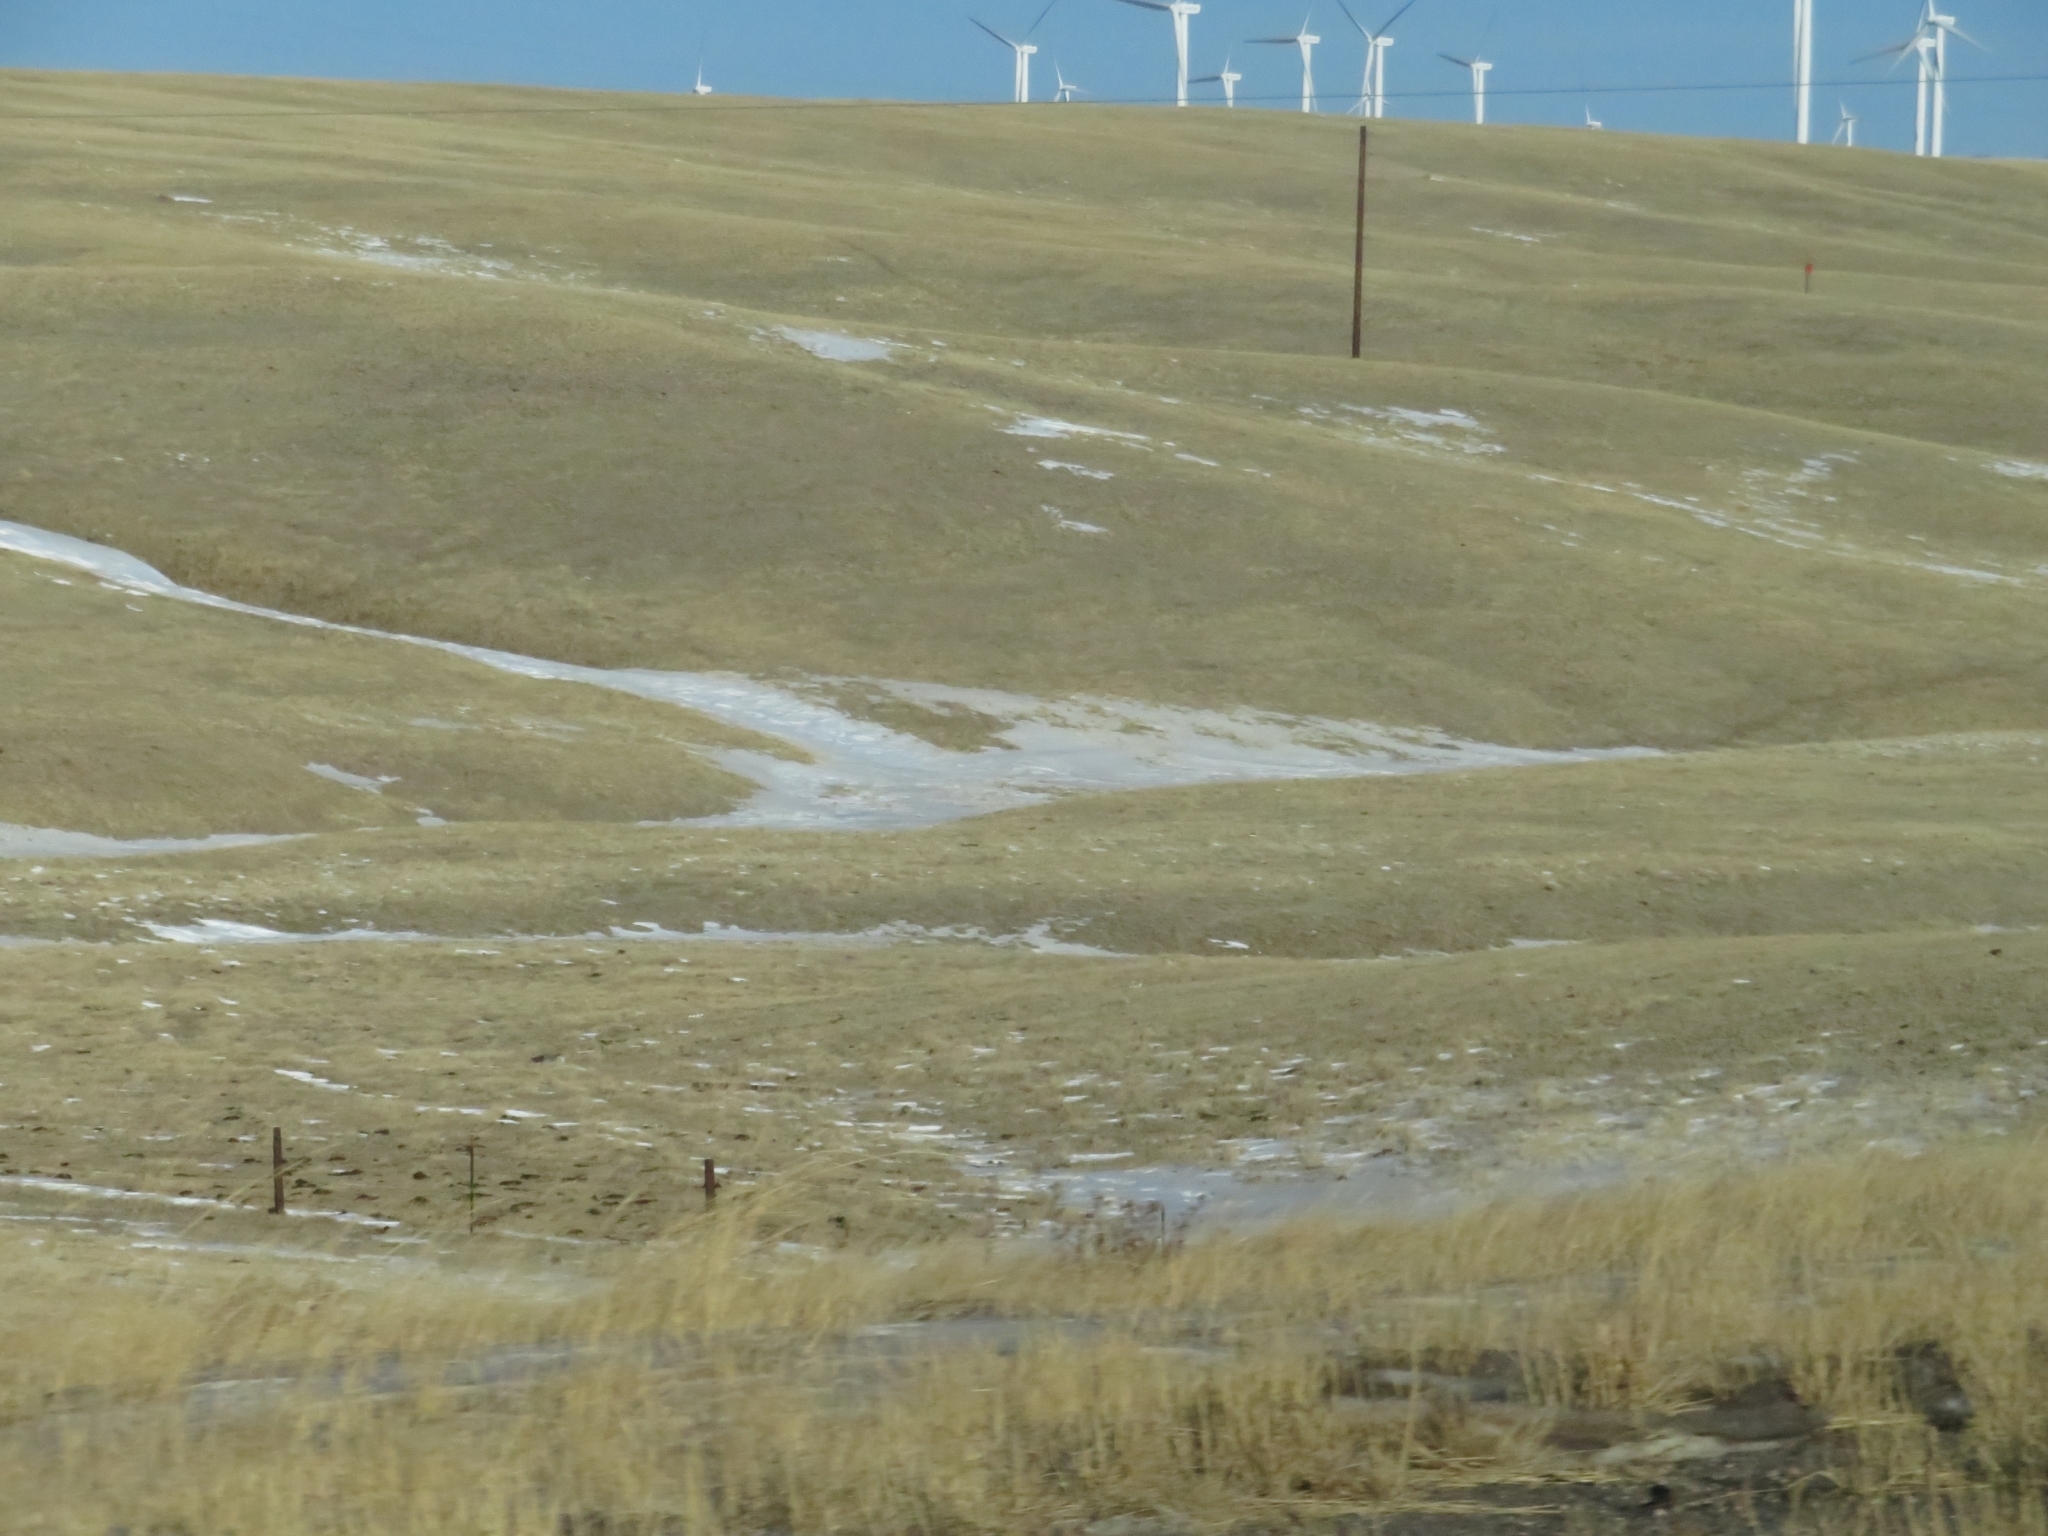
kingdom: Animalia
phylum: Chordata
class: Mammalia
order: Carnivora
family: Canidae
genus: Canis
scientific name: Canis latrans
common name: Coyote
